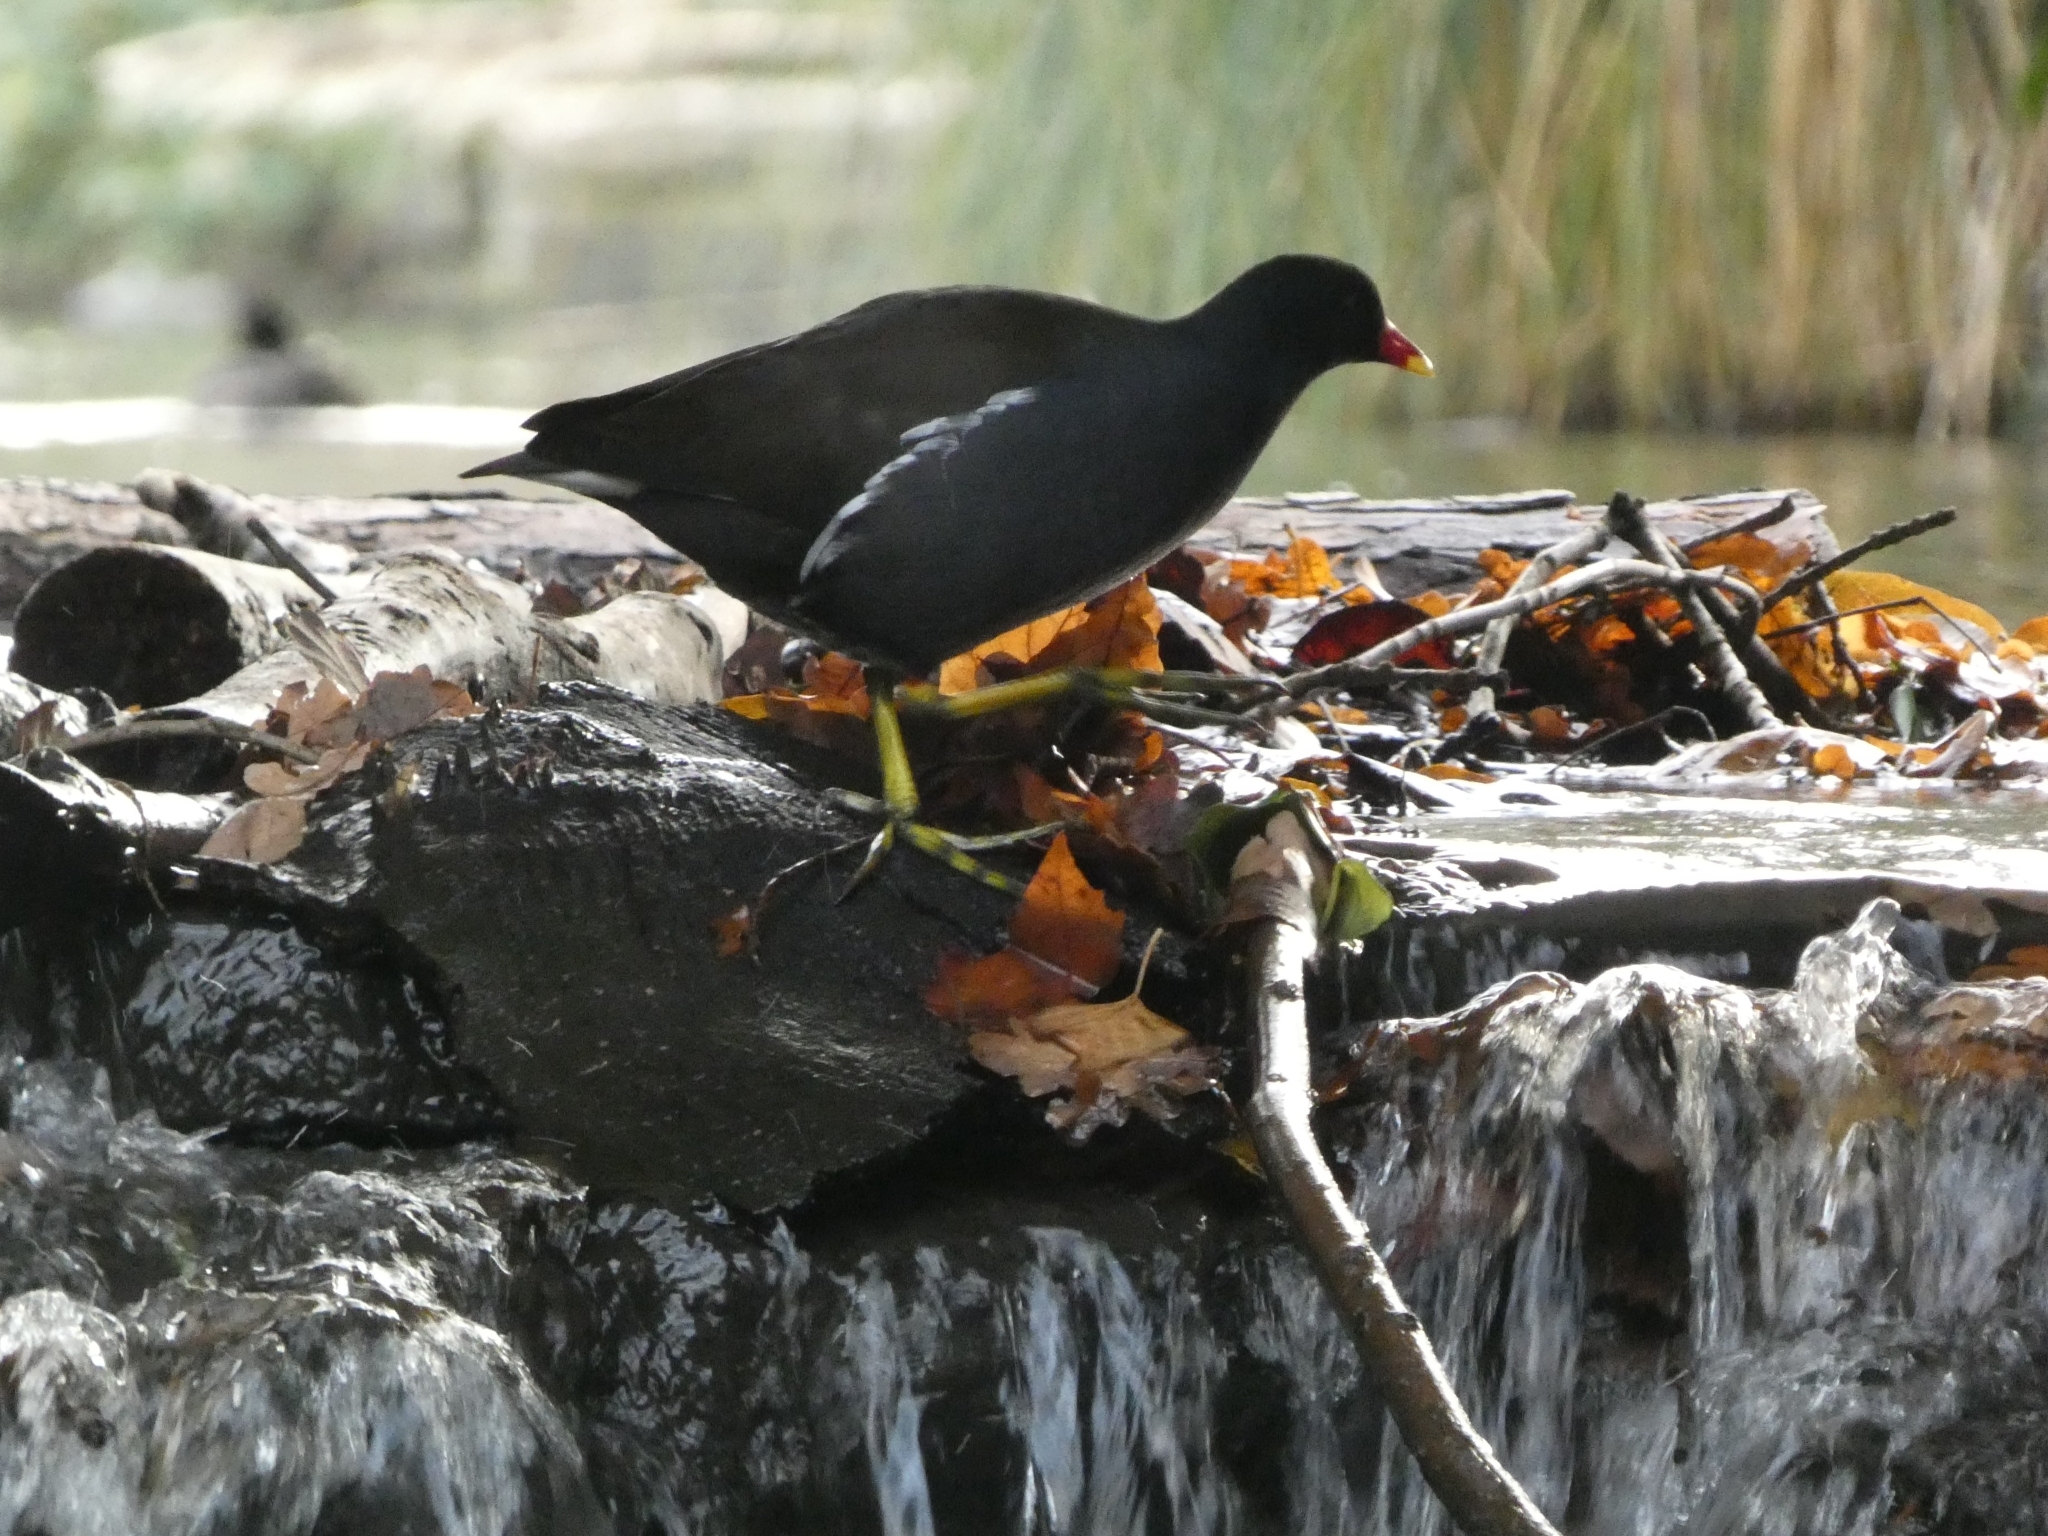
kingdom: Animalia
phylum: Chordata
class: Aves
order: Gruiformes
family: Rallidae
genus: Gallinula
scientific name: Gallinula chloropus
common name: Common moorhen
